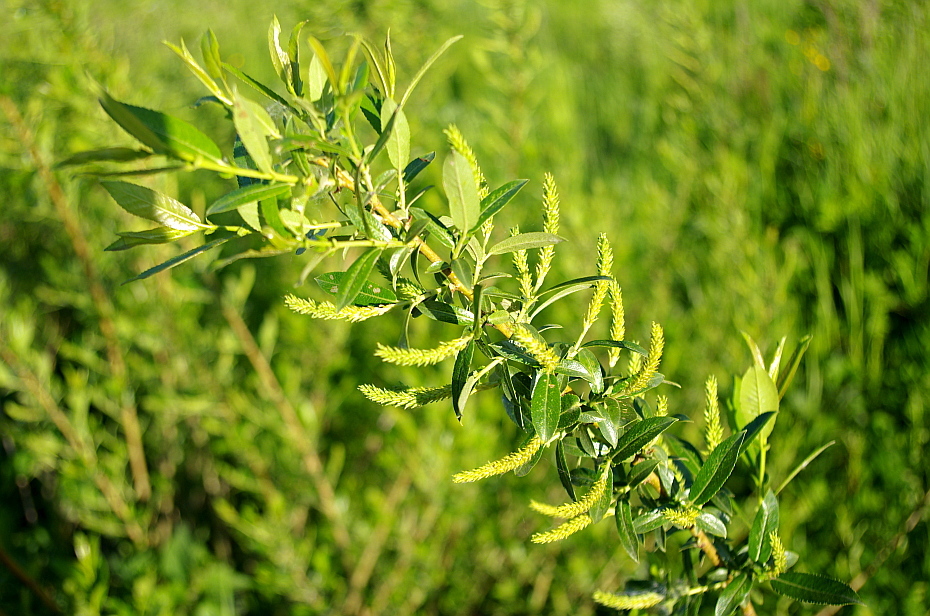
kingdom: Plantae
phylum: Tracheophyta
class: Magnoliopsida
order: Malpighiales
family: Salicaceae
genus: Salix
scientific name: Salix triandra
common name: Almond willow
